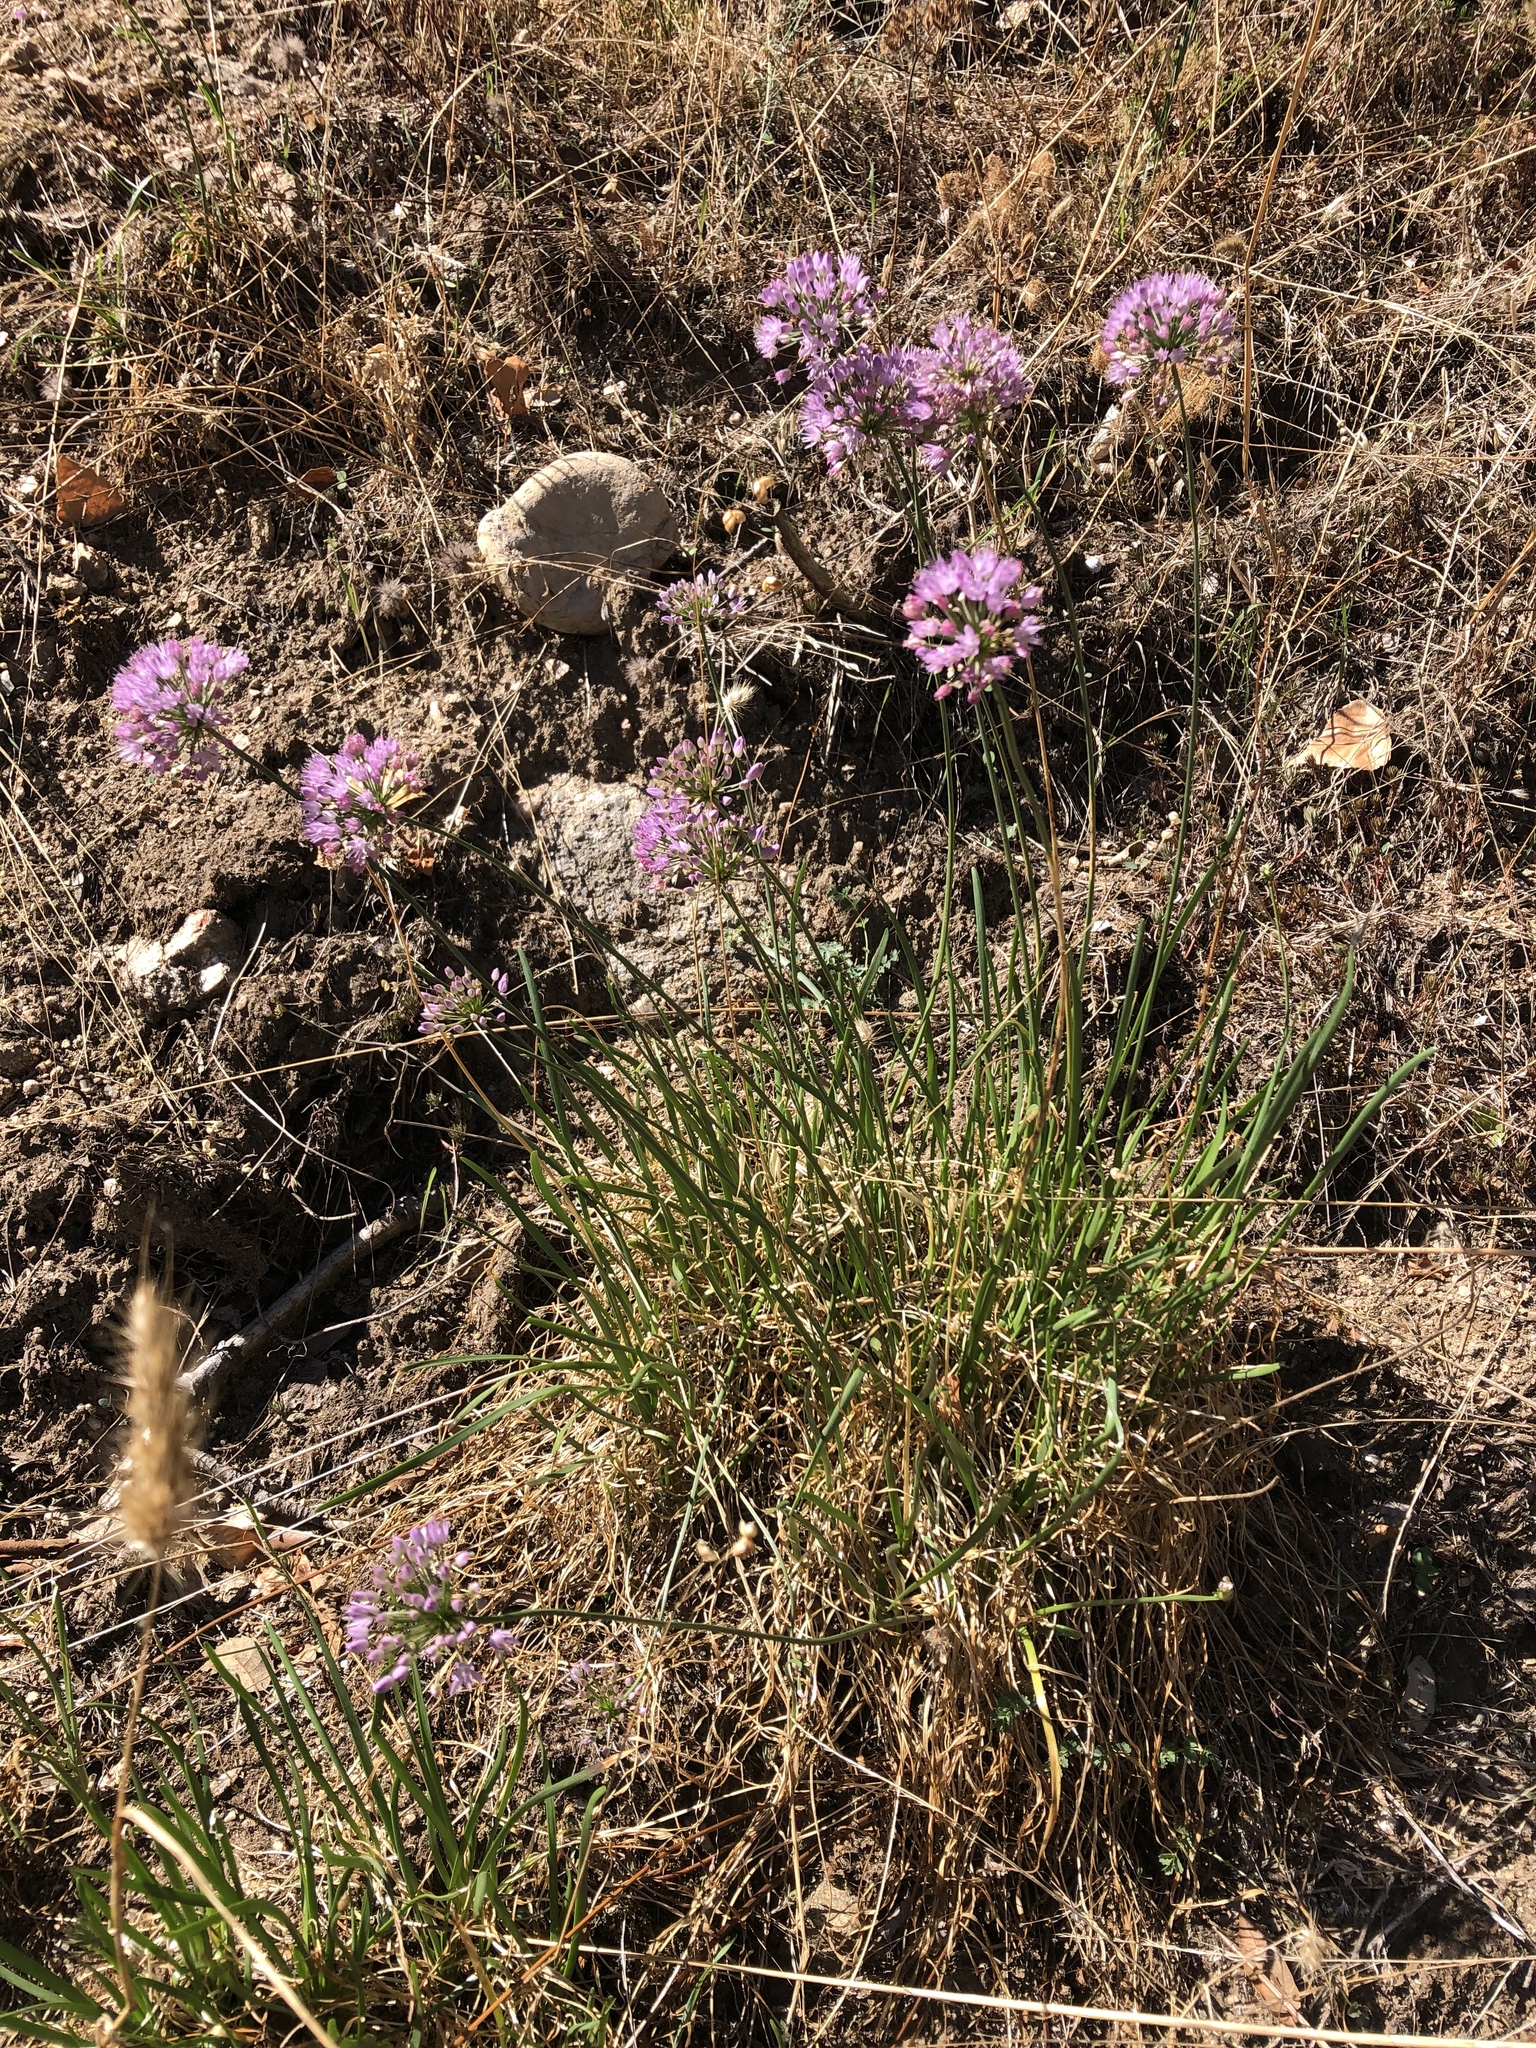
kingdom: Plantae
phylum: Tracheophyta
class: Liliopsida
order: Asparagales
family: Amaryllidaceae
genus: Allium
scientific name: Allium lusitanicum
